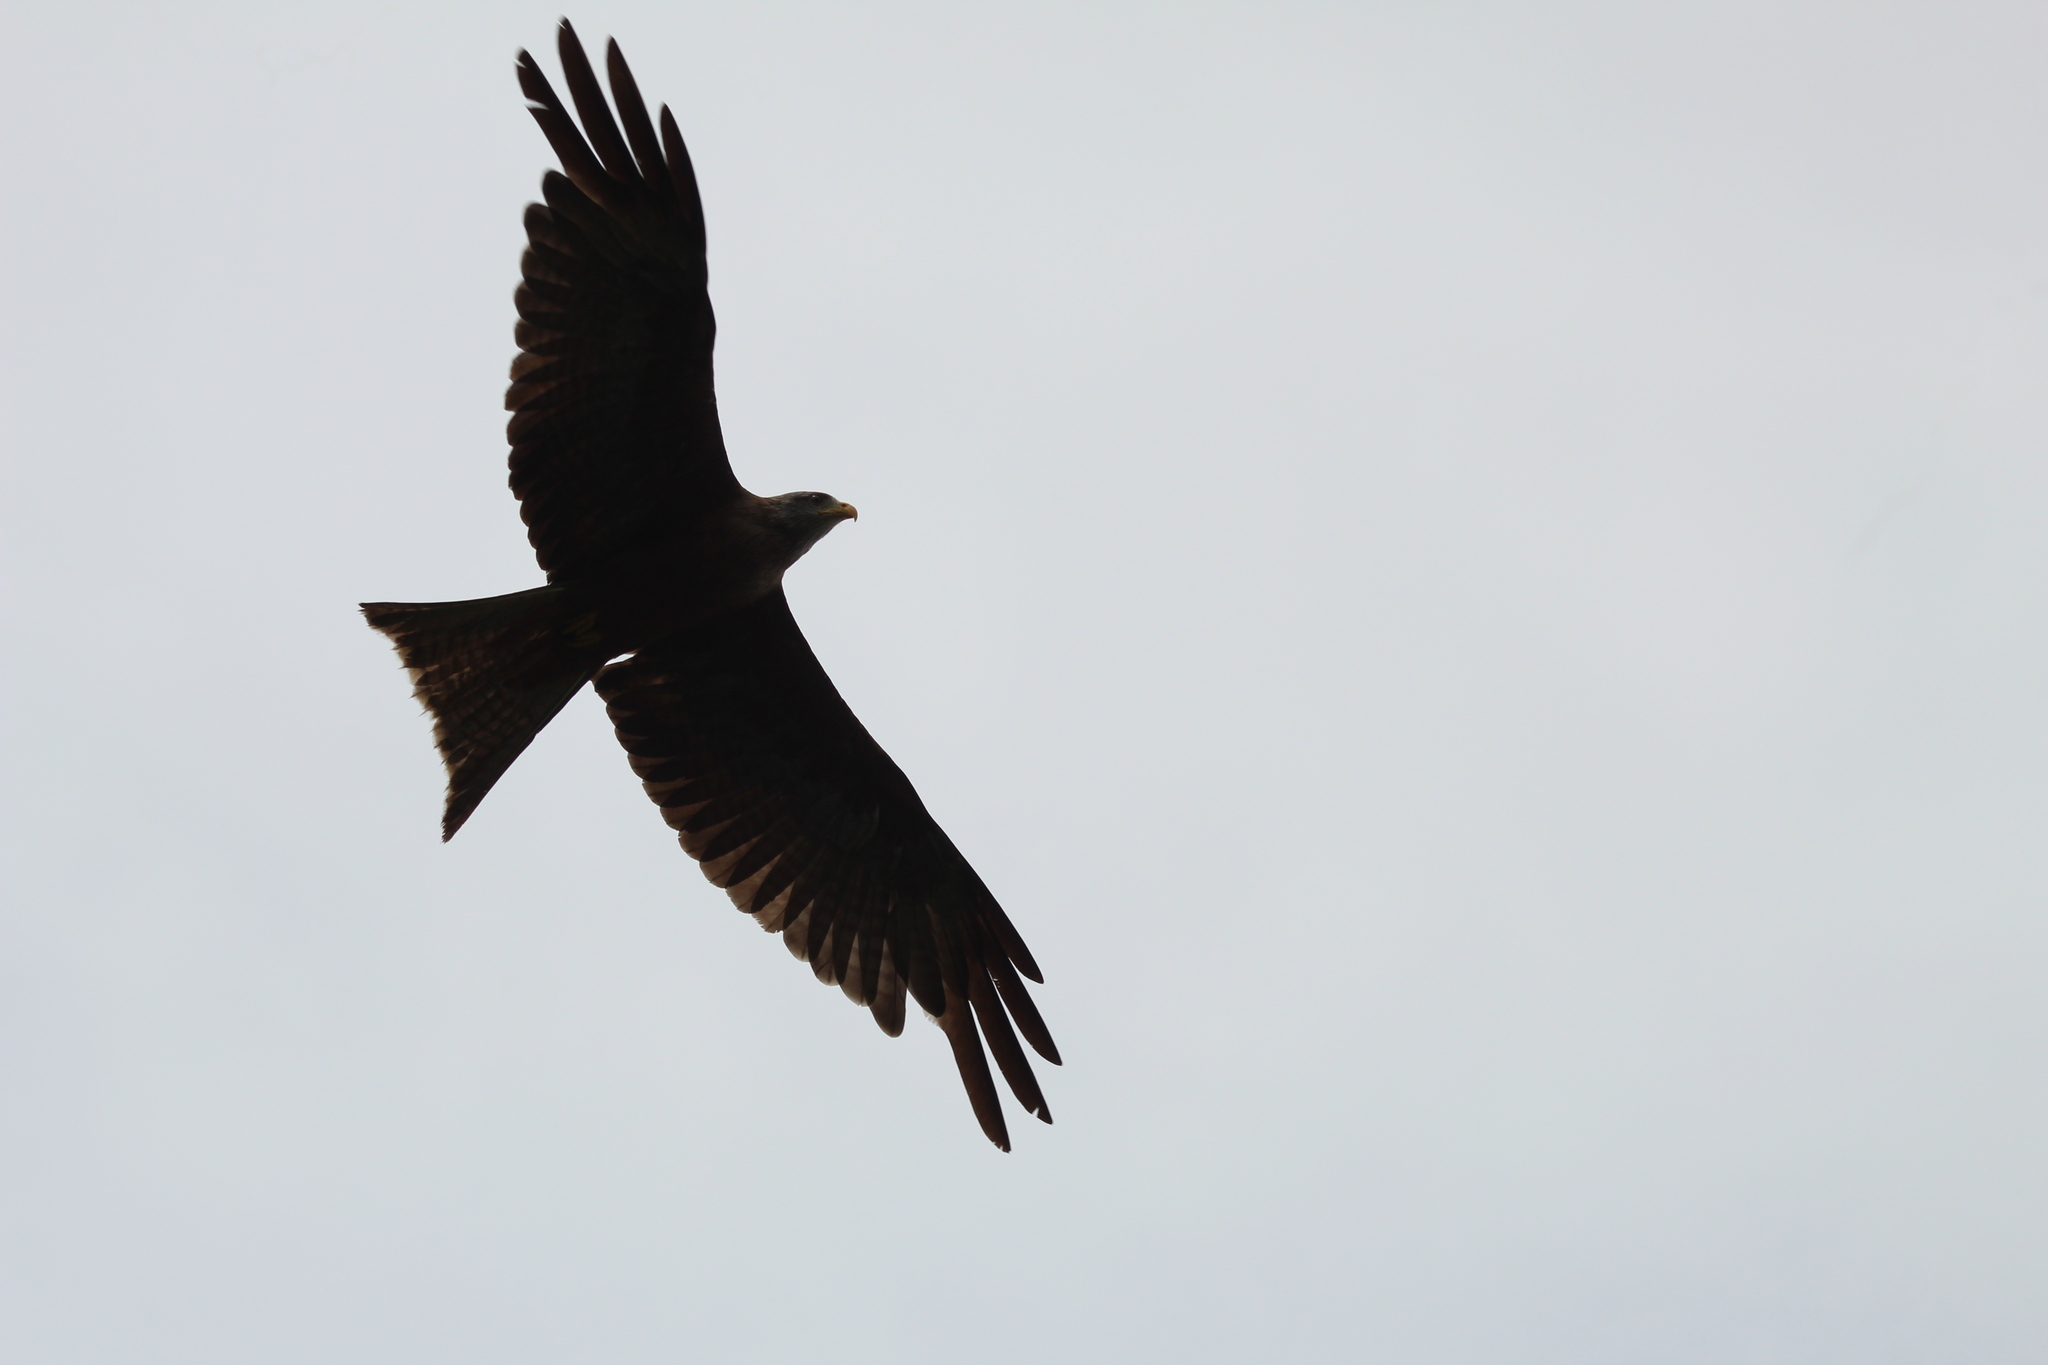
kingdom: Animalia
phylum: Chordata
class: Aves
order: Accipitriformes
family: Accipitridae
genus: Milvus
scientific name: Milvus migrans
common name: Black kite
